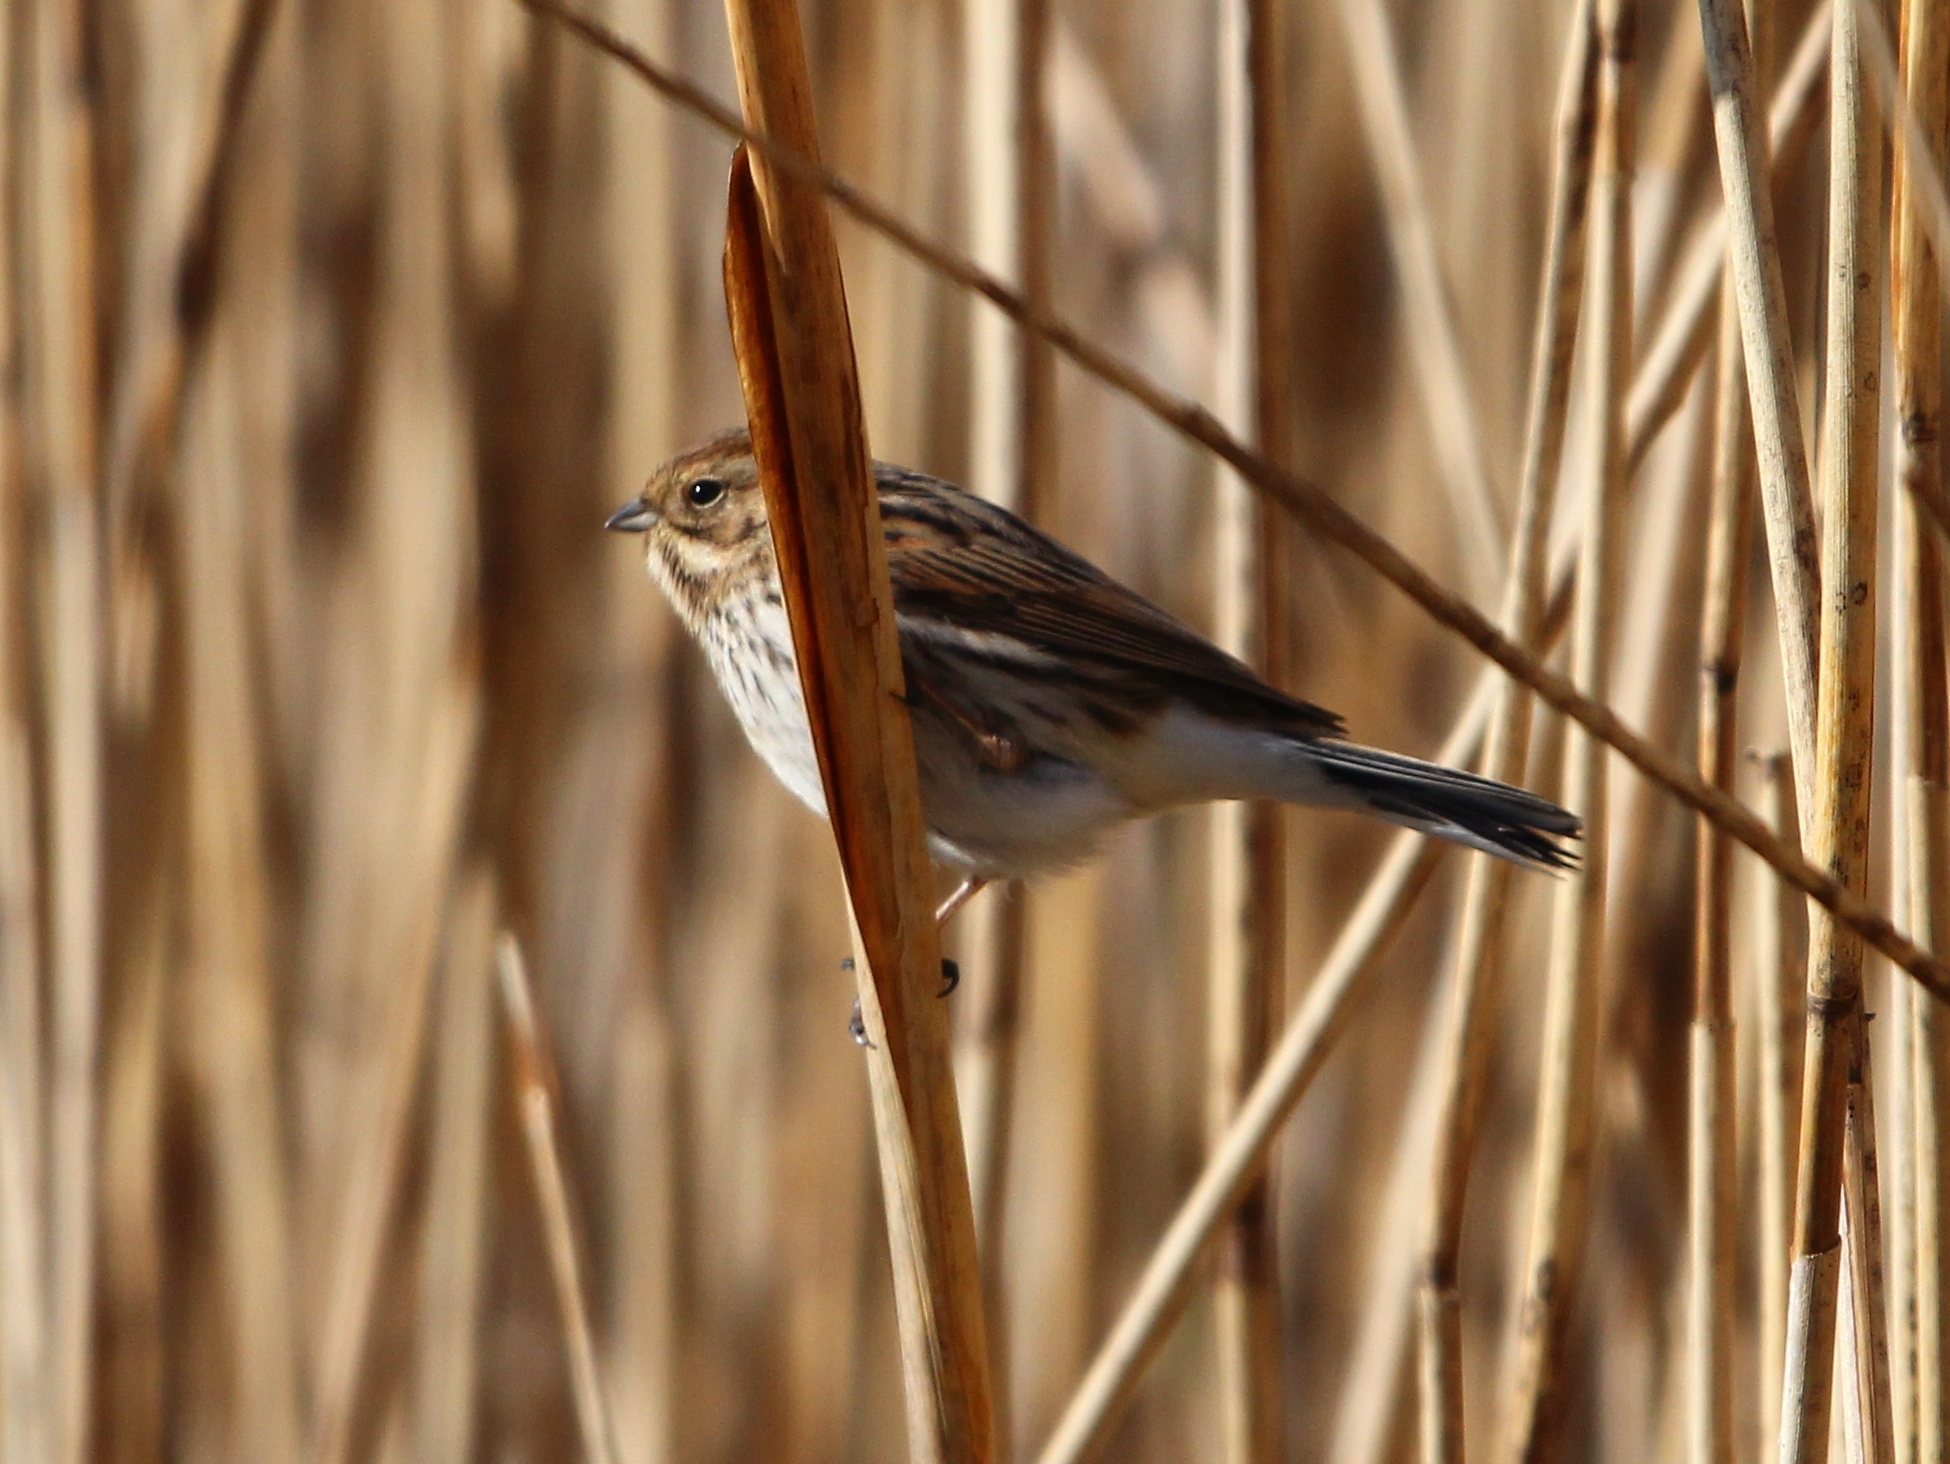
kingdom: Animalia
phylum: Chordata
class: Aves
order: Passeriformes
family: Emberizidae
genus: Emberiza
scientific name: Emberiza schoeniclus
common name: Reed bunting
